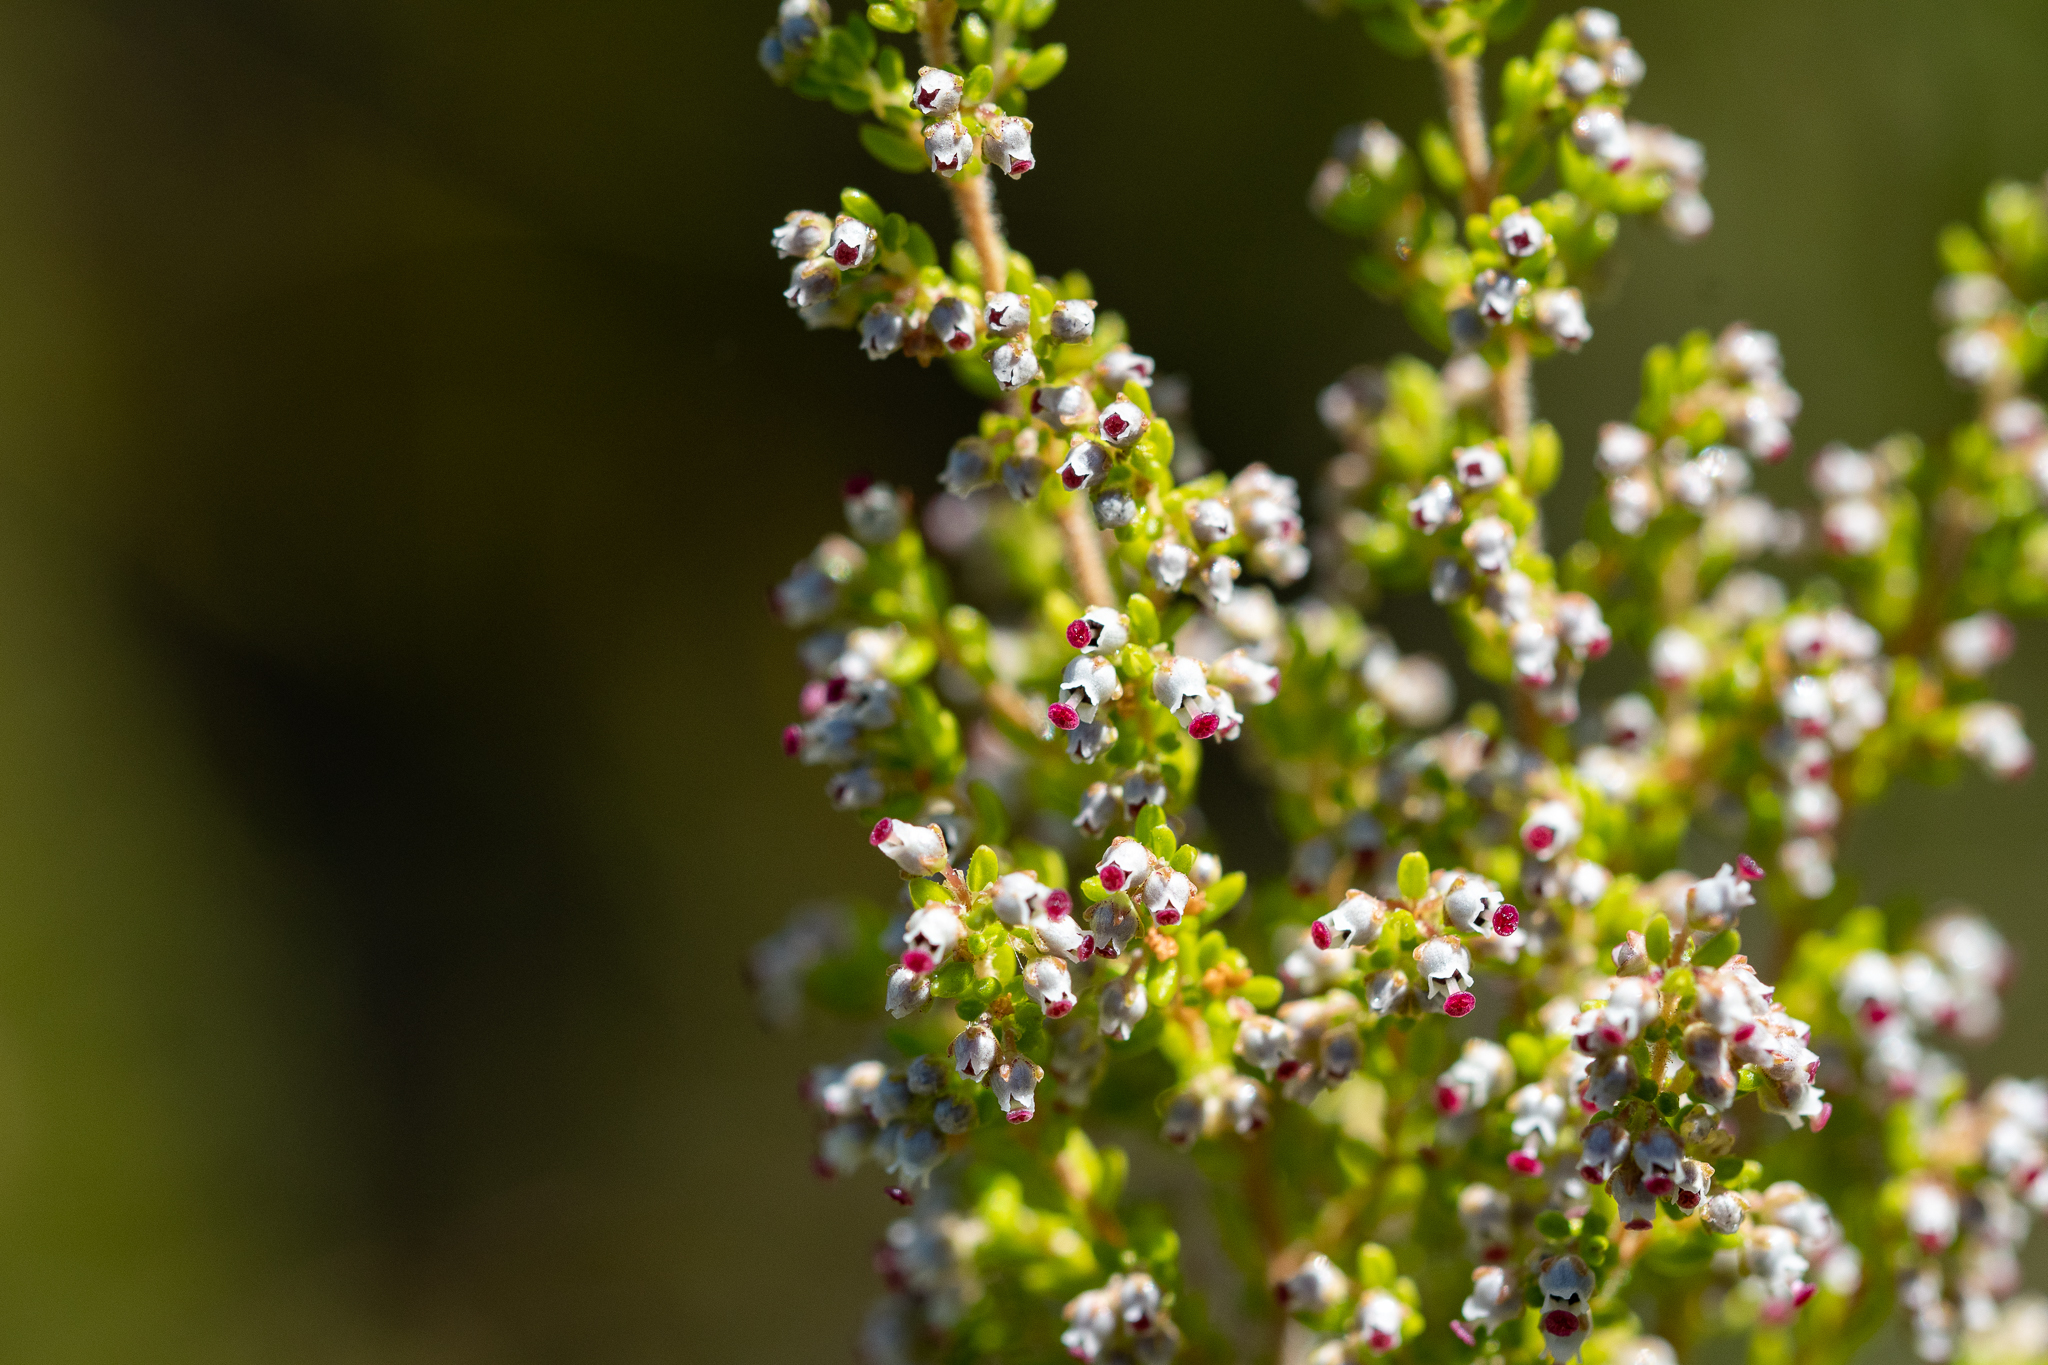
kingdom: Plantae
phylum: Tracheophyta
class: Magnoliopsida
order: Ericales
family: Ericaceae
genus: Erica
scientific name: Erica hispidula
